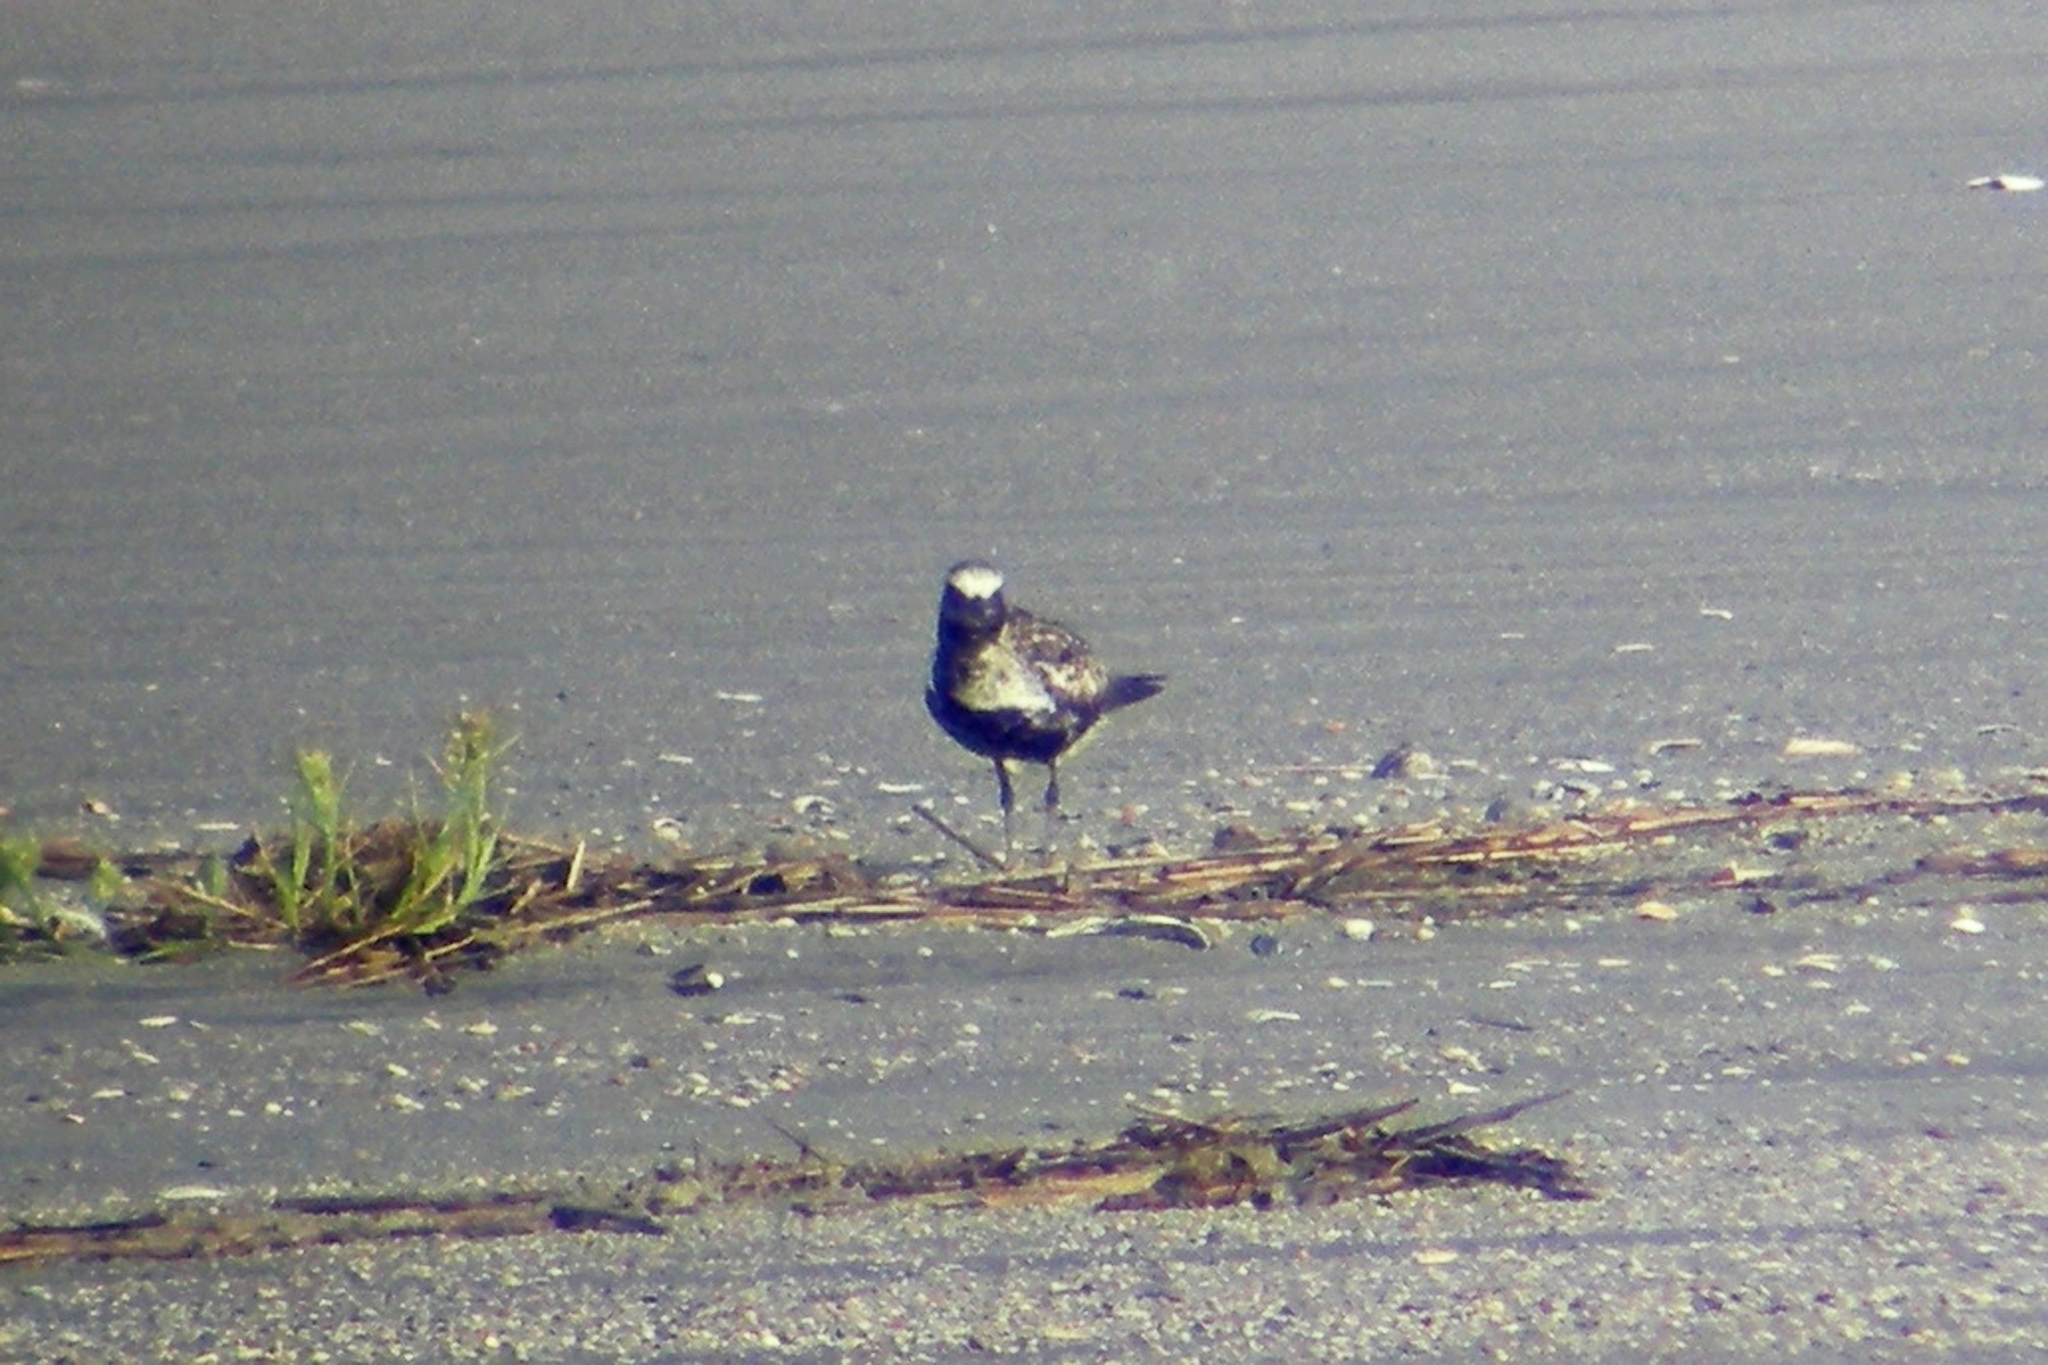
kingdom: Animalia
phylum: Chordata
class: Aves
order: Charadriiformes
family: Charadriidae
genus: Pluvialis
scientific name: Pluvialis squatarola
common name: Grey plover
